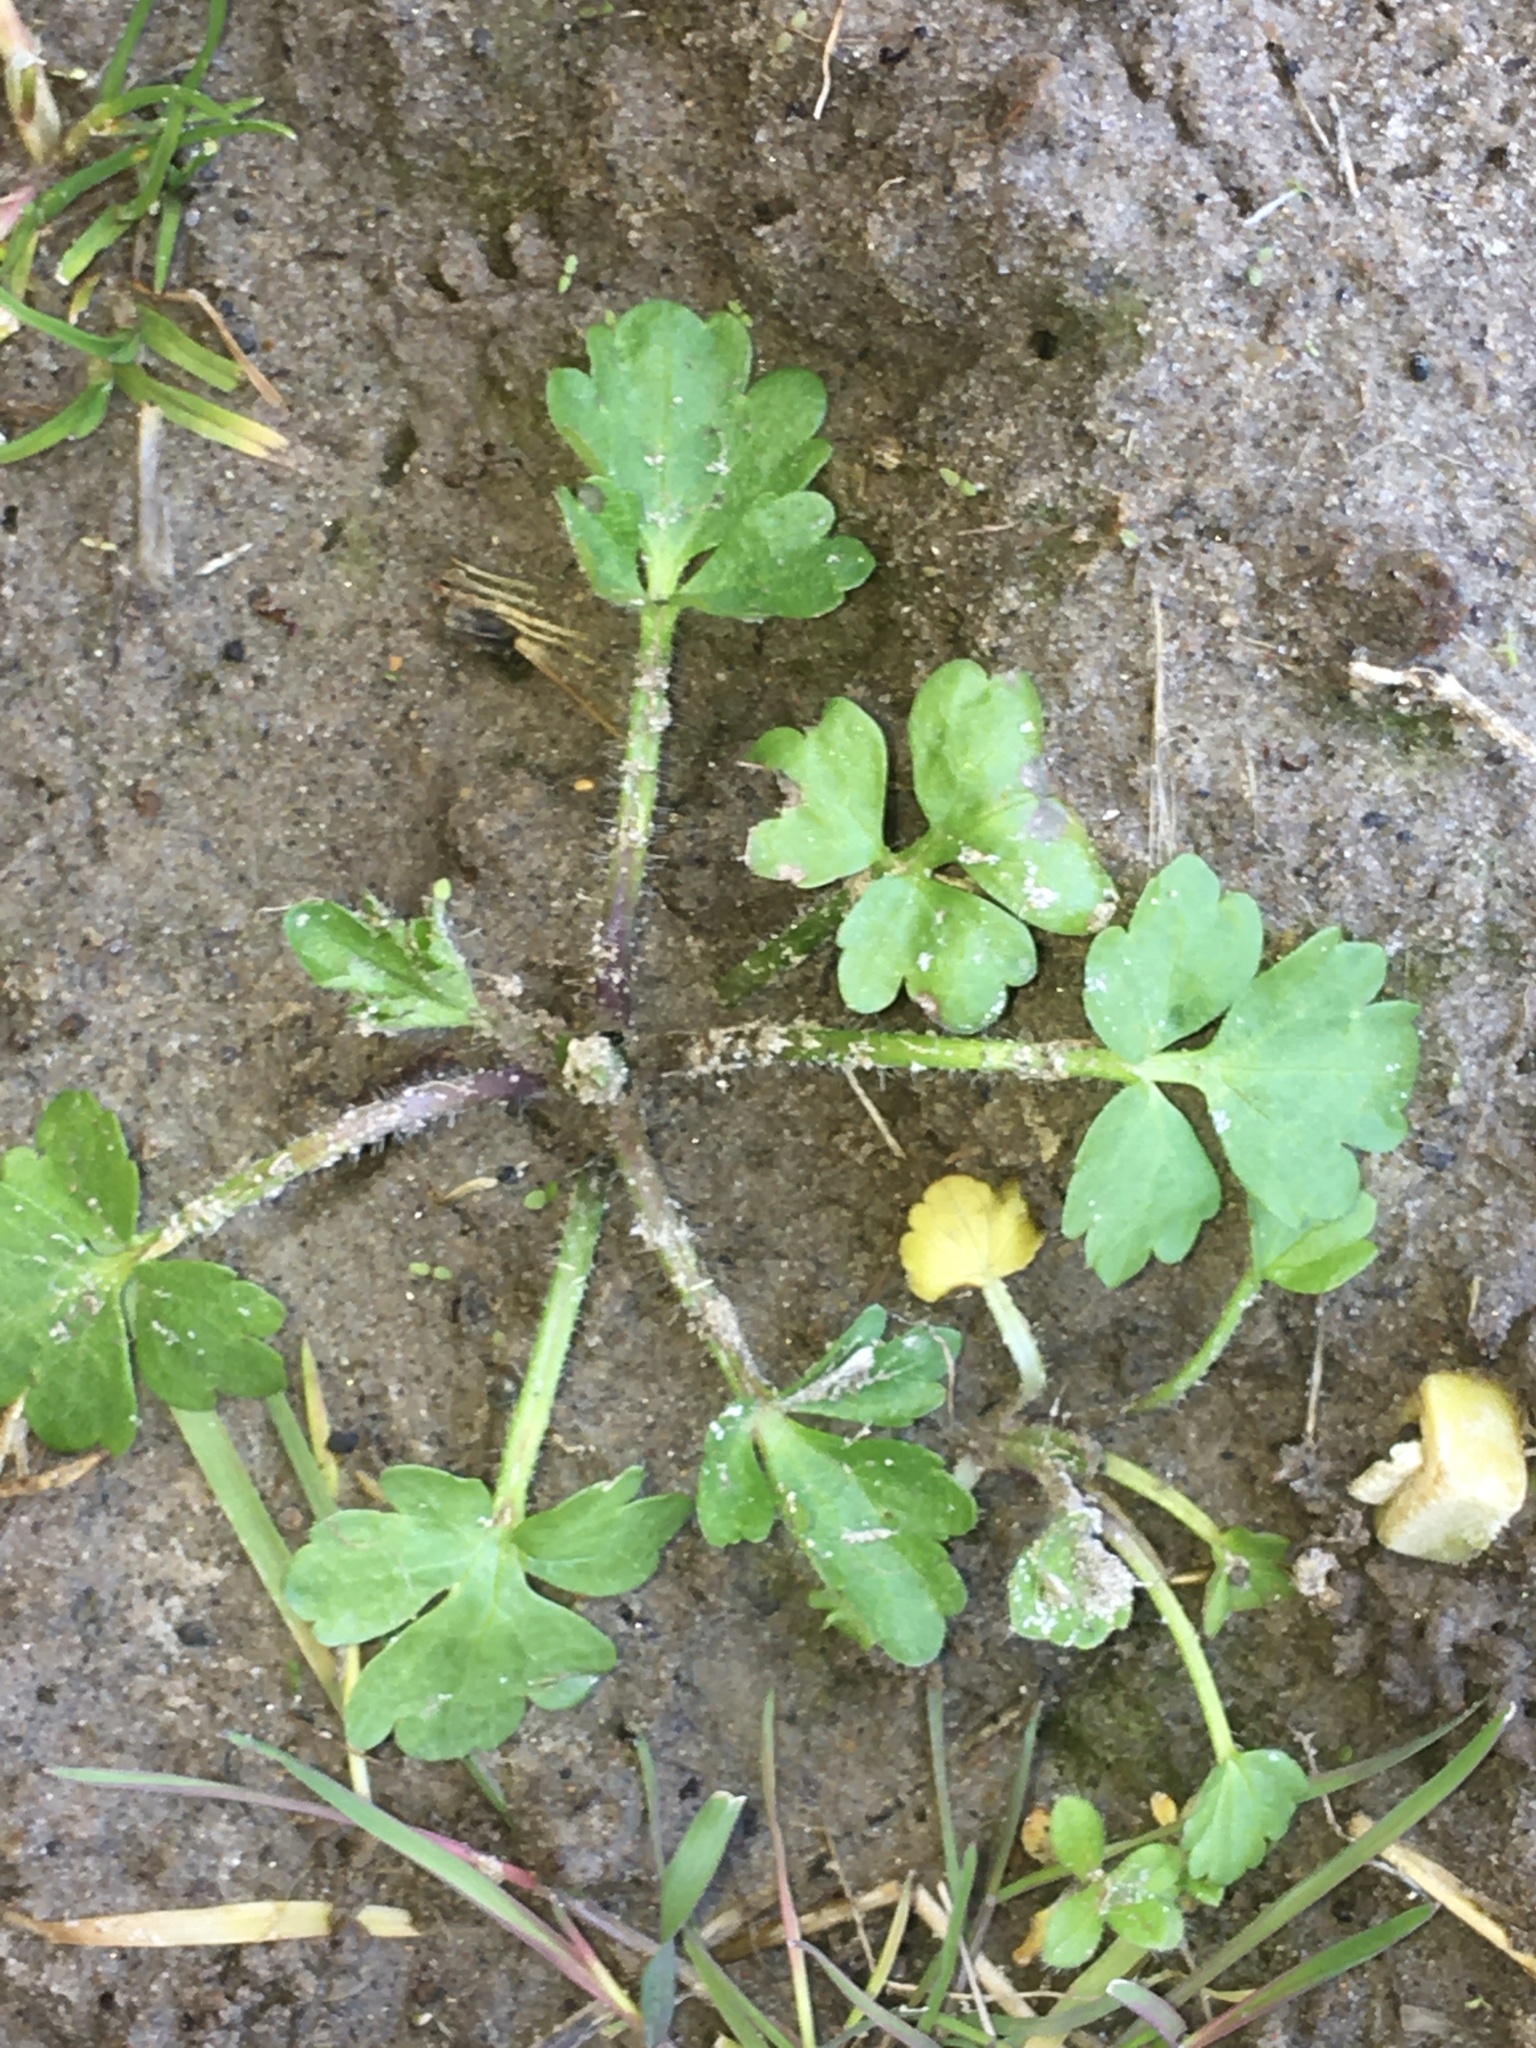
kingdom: Plantae
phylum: Tracheophyta
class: Magnoliopsida
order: Ranunculales
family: Ranunculaceae
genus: Ranunculus
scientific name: Ranunculus sardous
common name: Hairy buttercup
